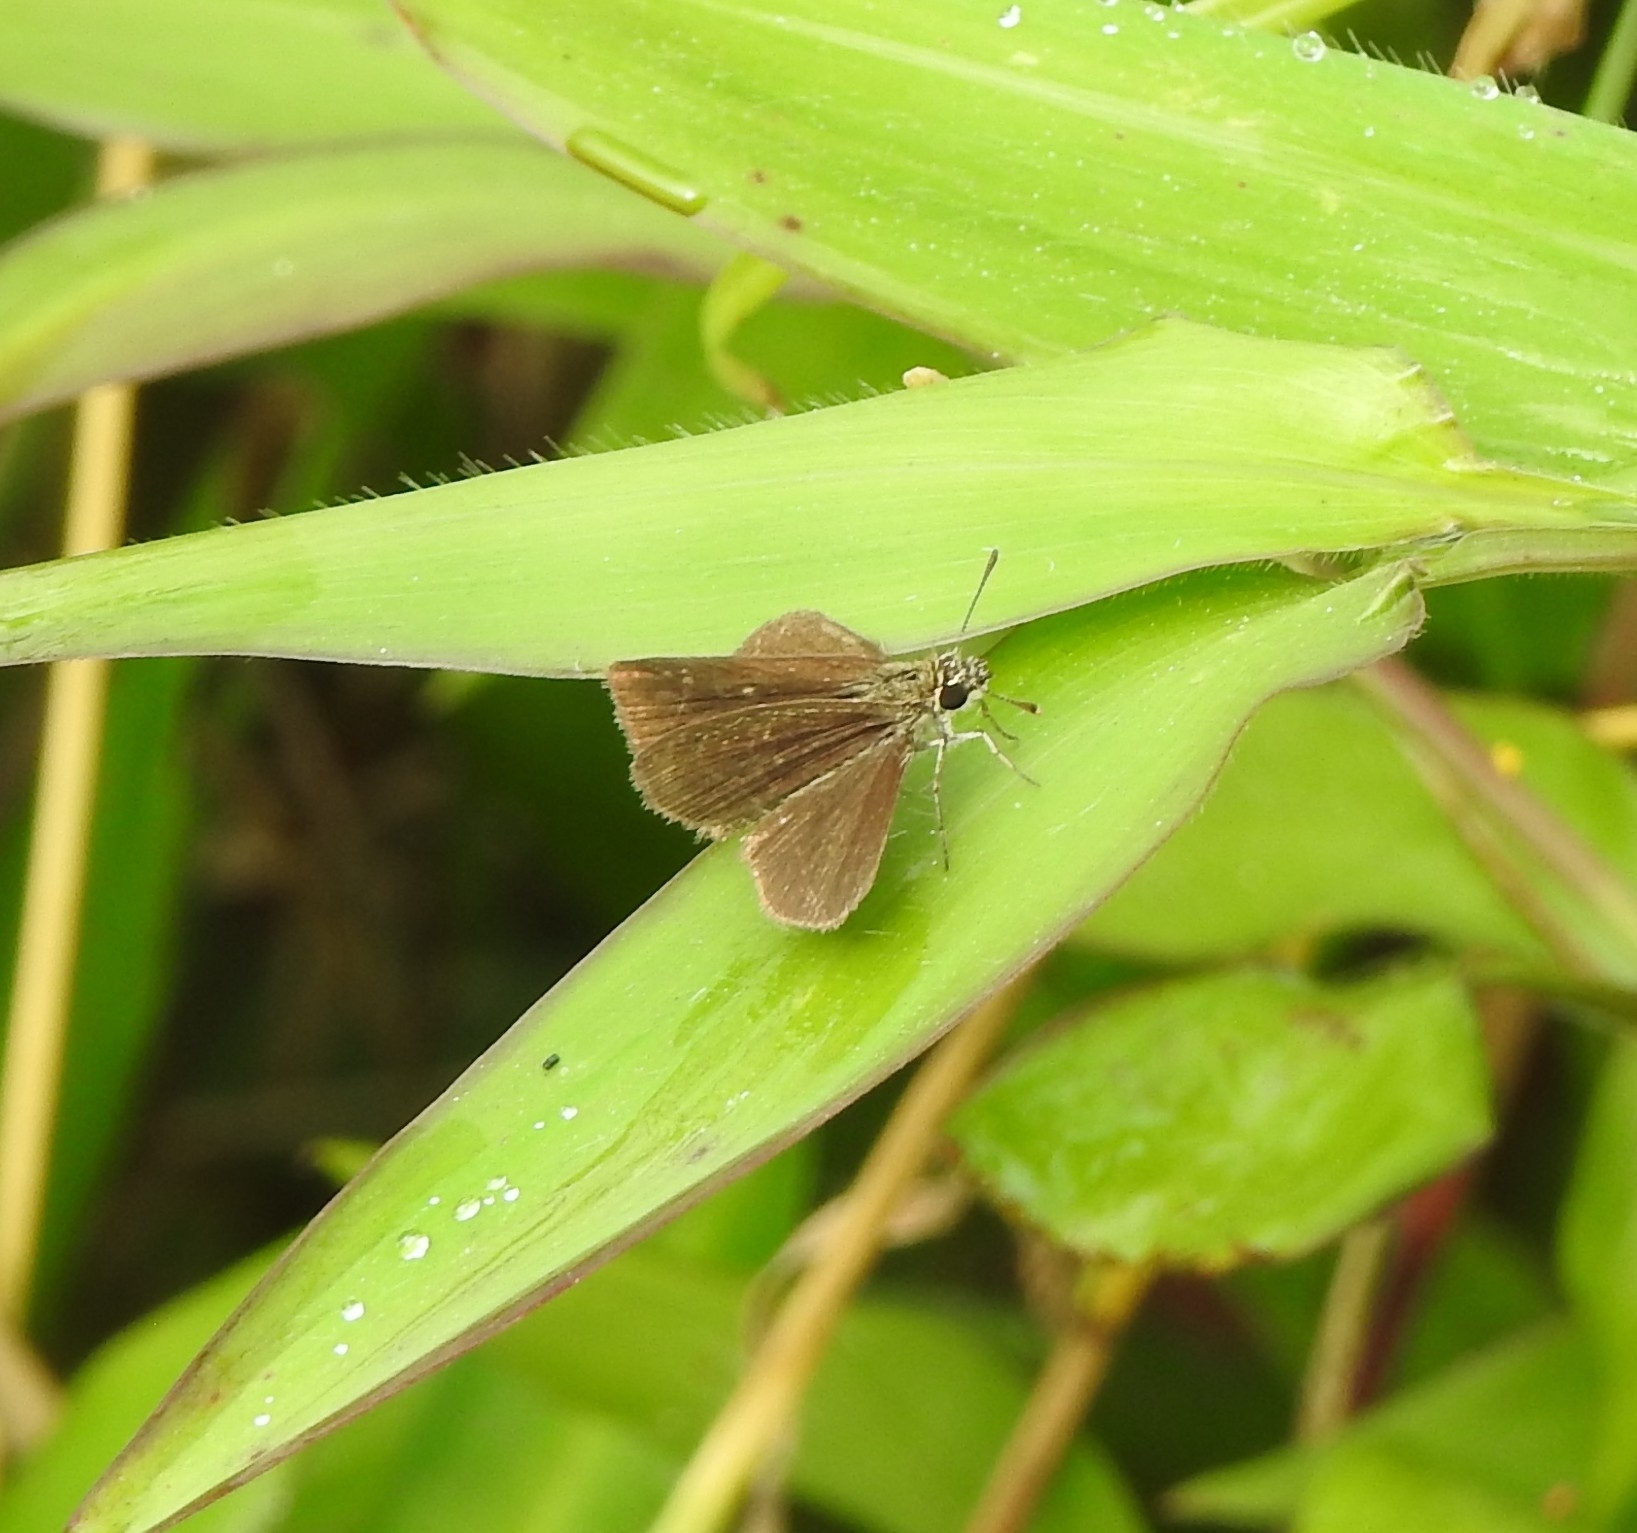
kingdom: Animalia
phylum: Arthropoda
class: Insecta
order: Lepidoptera
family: Hesperiidae
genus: Aeromachus
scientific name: Aeromachus pygmaeus
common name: Pygmy scrub hopper
